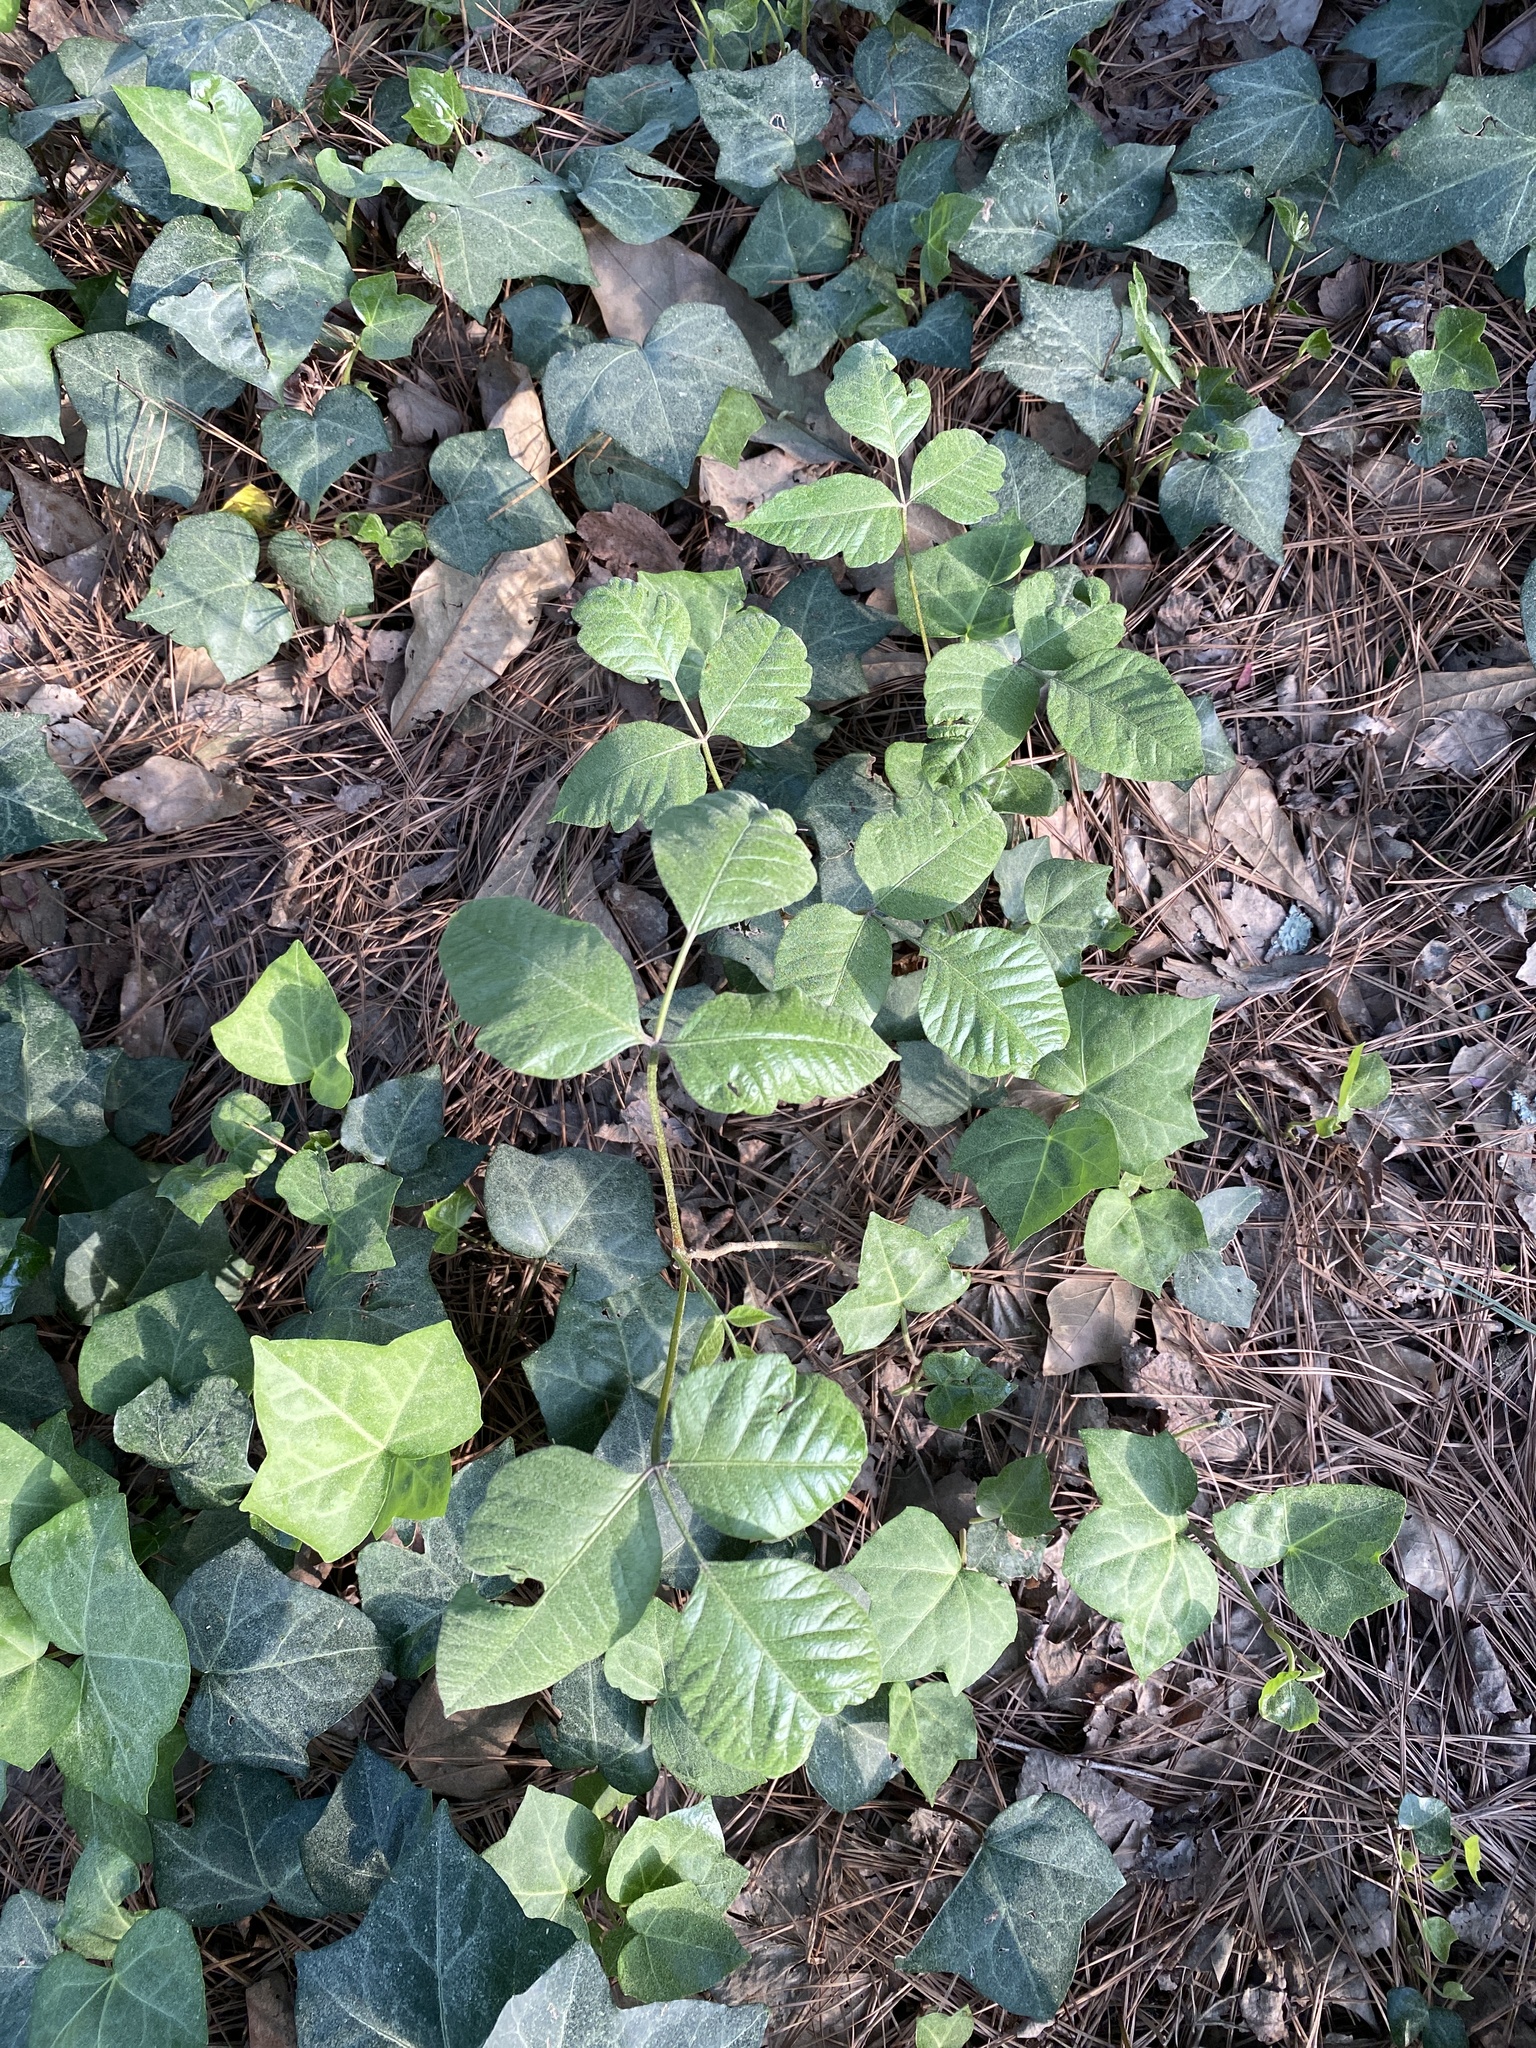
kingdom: Plantae
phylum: Tracheophyta
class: Magnoliopsida
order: Sapindales
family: Anacardiaceae
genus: Toxicodendron
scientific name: Toxicodendron radicans
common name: Poison ivy
